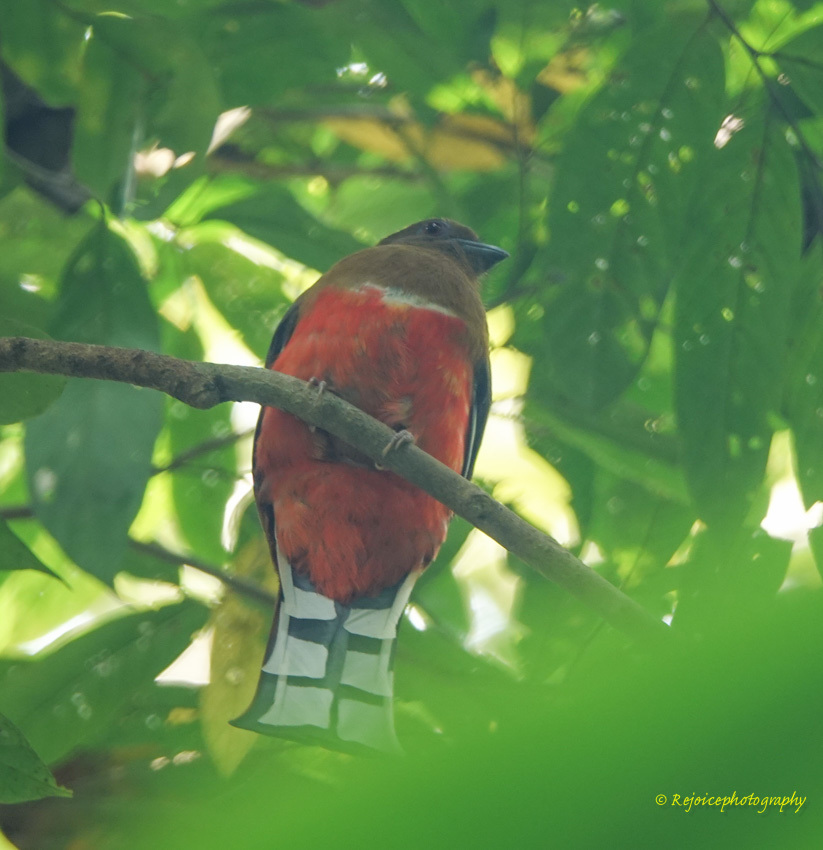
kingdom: Animalia
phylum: Chordata
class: Aves
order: Trogoniformes
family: Trogonidae
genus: Harpactes
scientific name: Harpactes erythrocephalus
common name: Red-headed trogon
